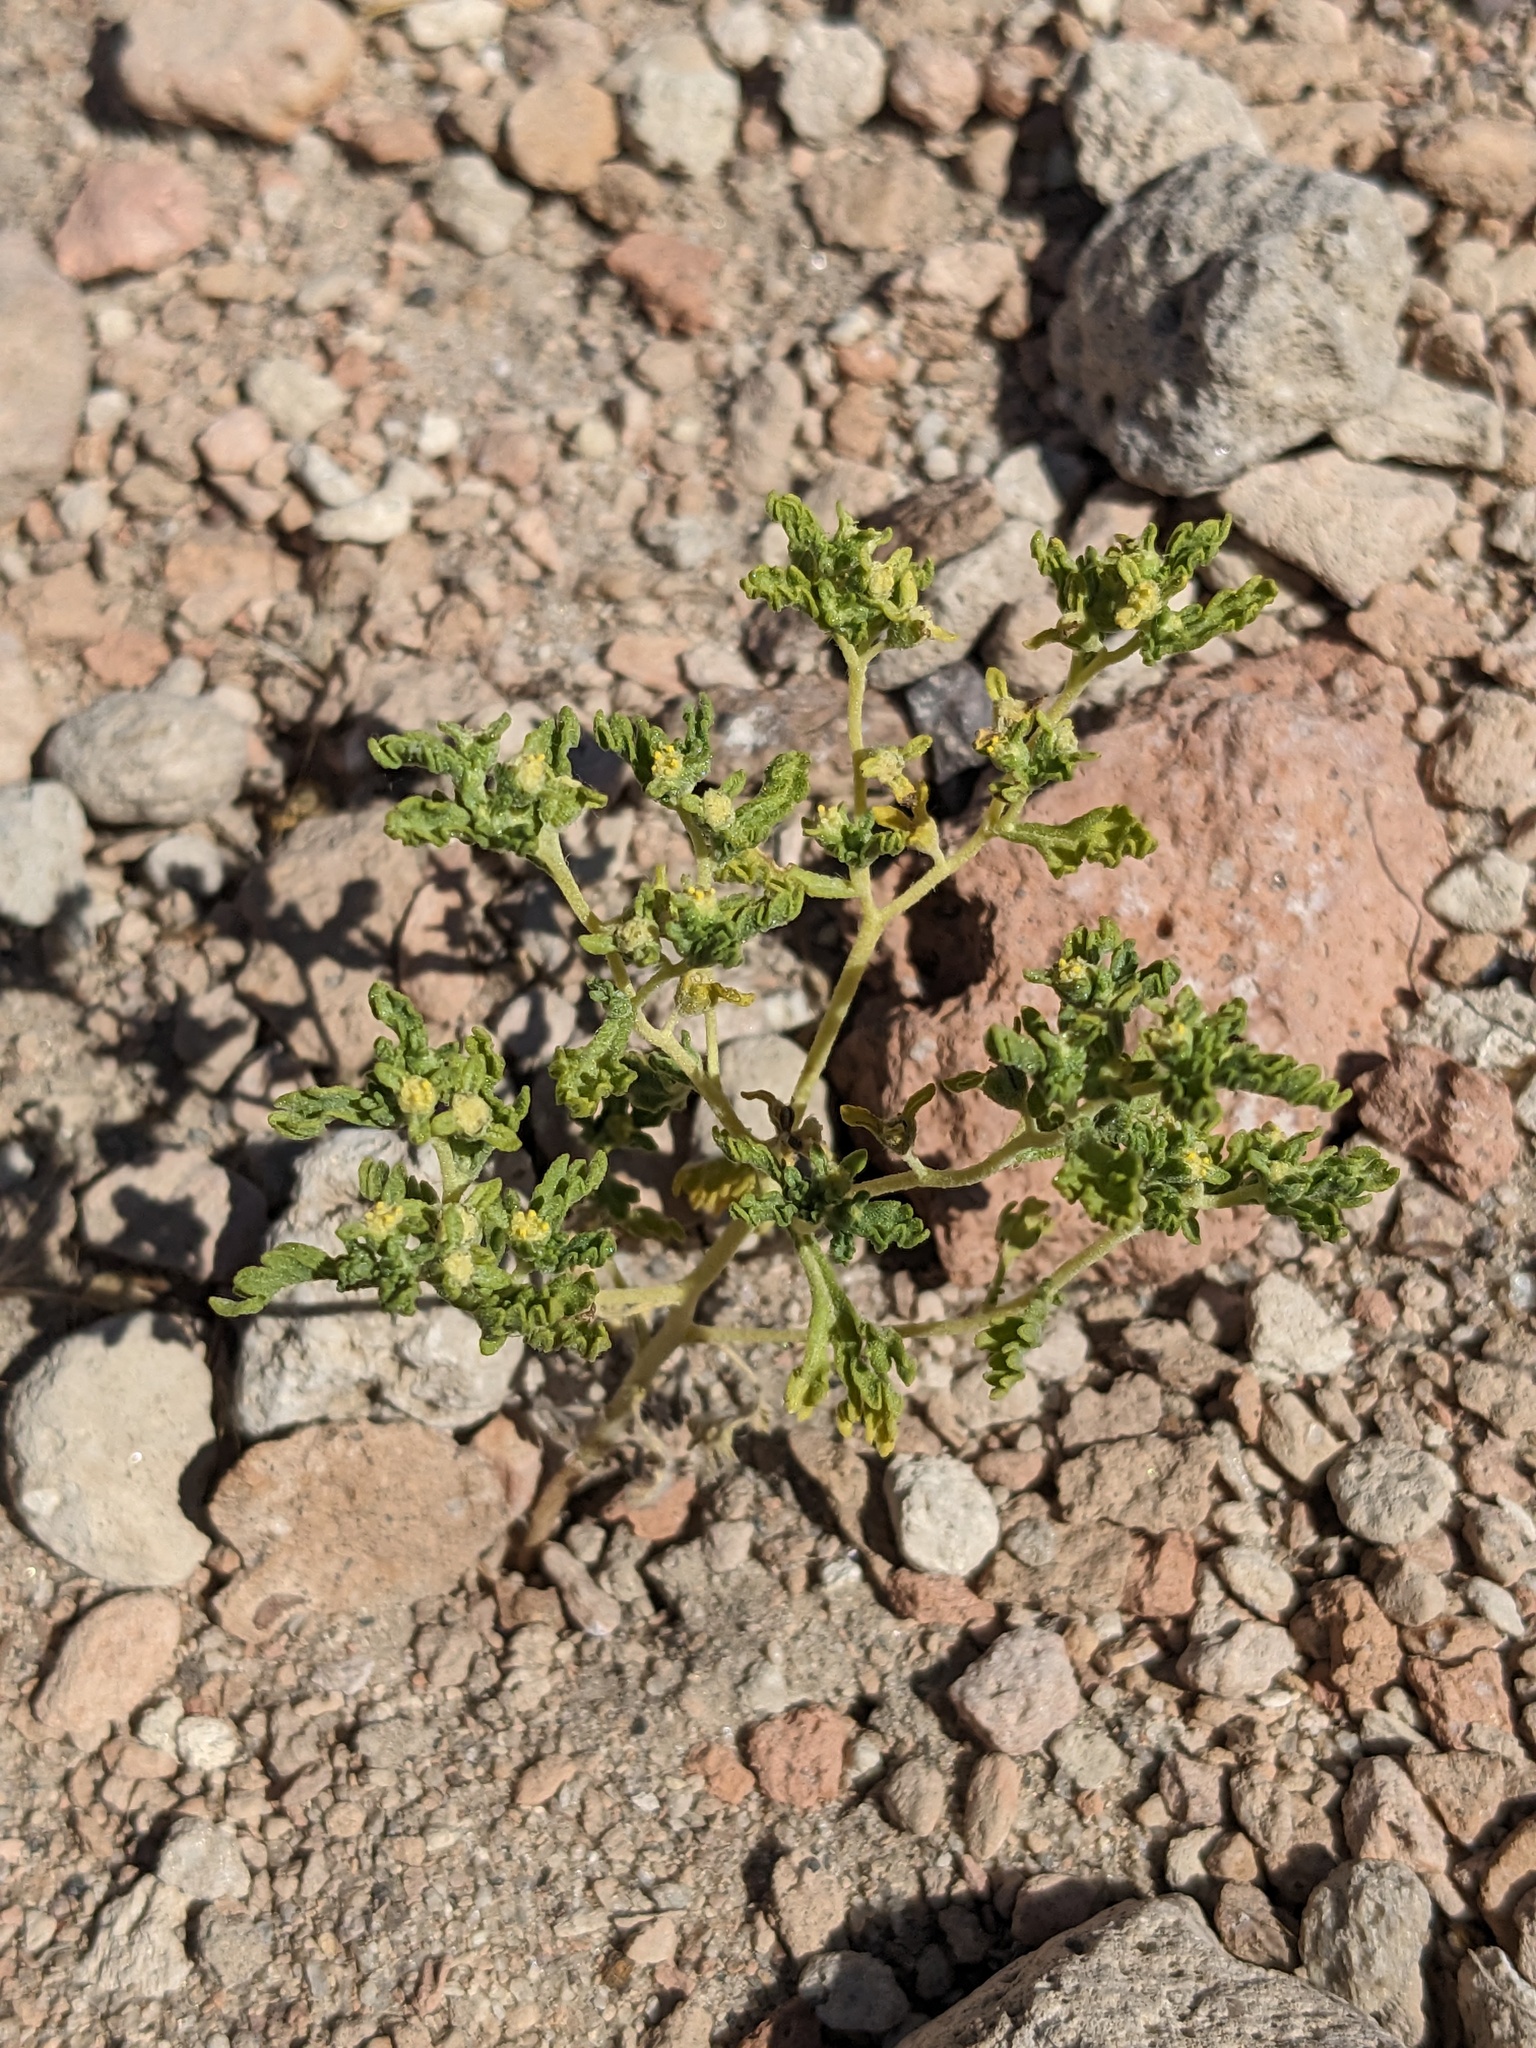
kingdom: Plantae
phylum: Tracheophyta
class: Magnoliopsida
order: Asterales
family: Asteraceae
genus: Euphrosyne
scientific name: Euphrosyne nevadensis
